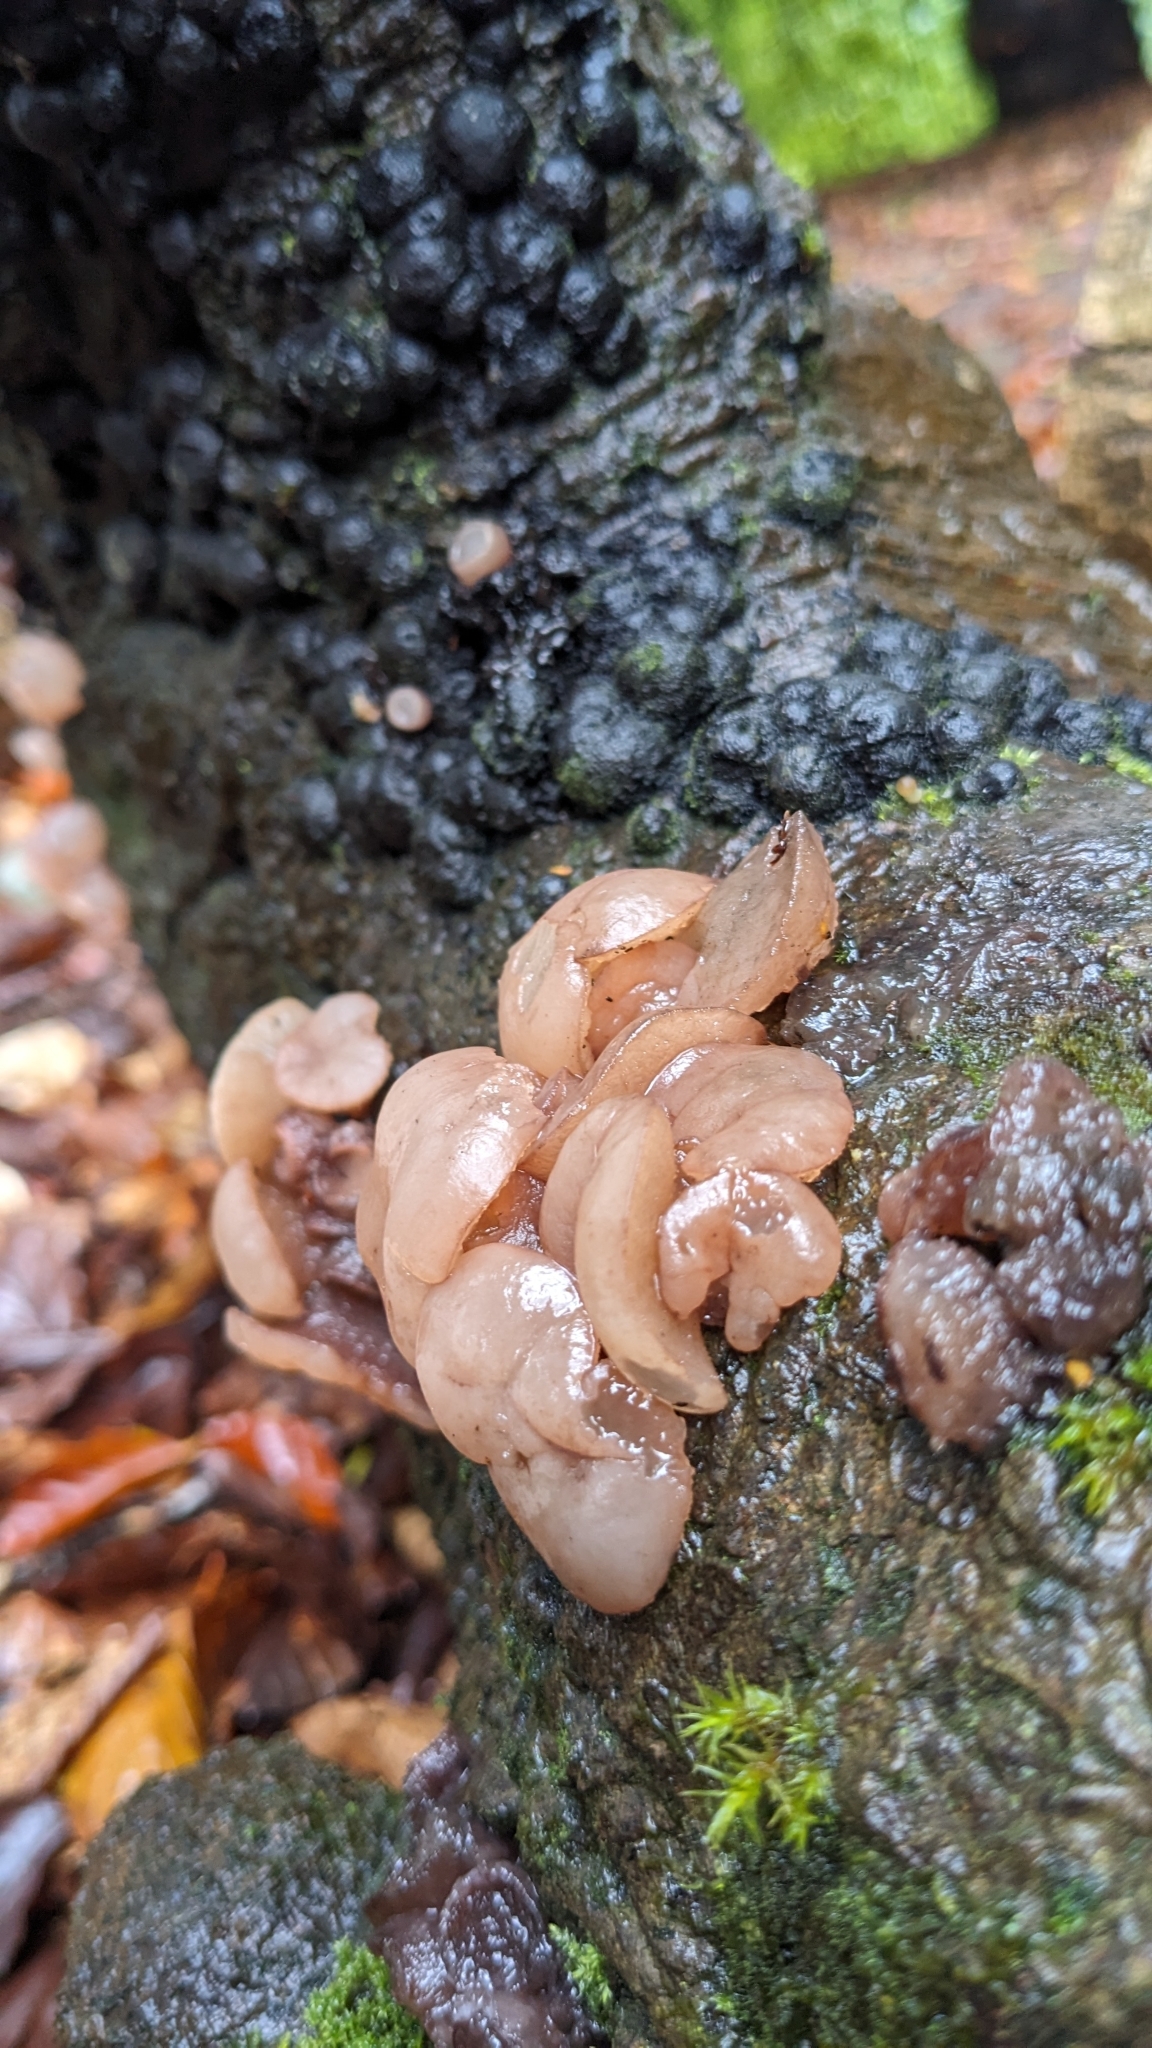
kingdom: Fungi
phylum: Ascomycota
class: Leotiomycetes
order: Helotiales
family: Gelatinodiscaceae
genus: Neobulgaria
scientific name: Neobulgaria pura
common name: Beech jelly-disc
